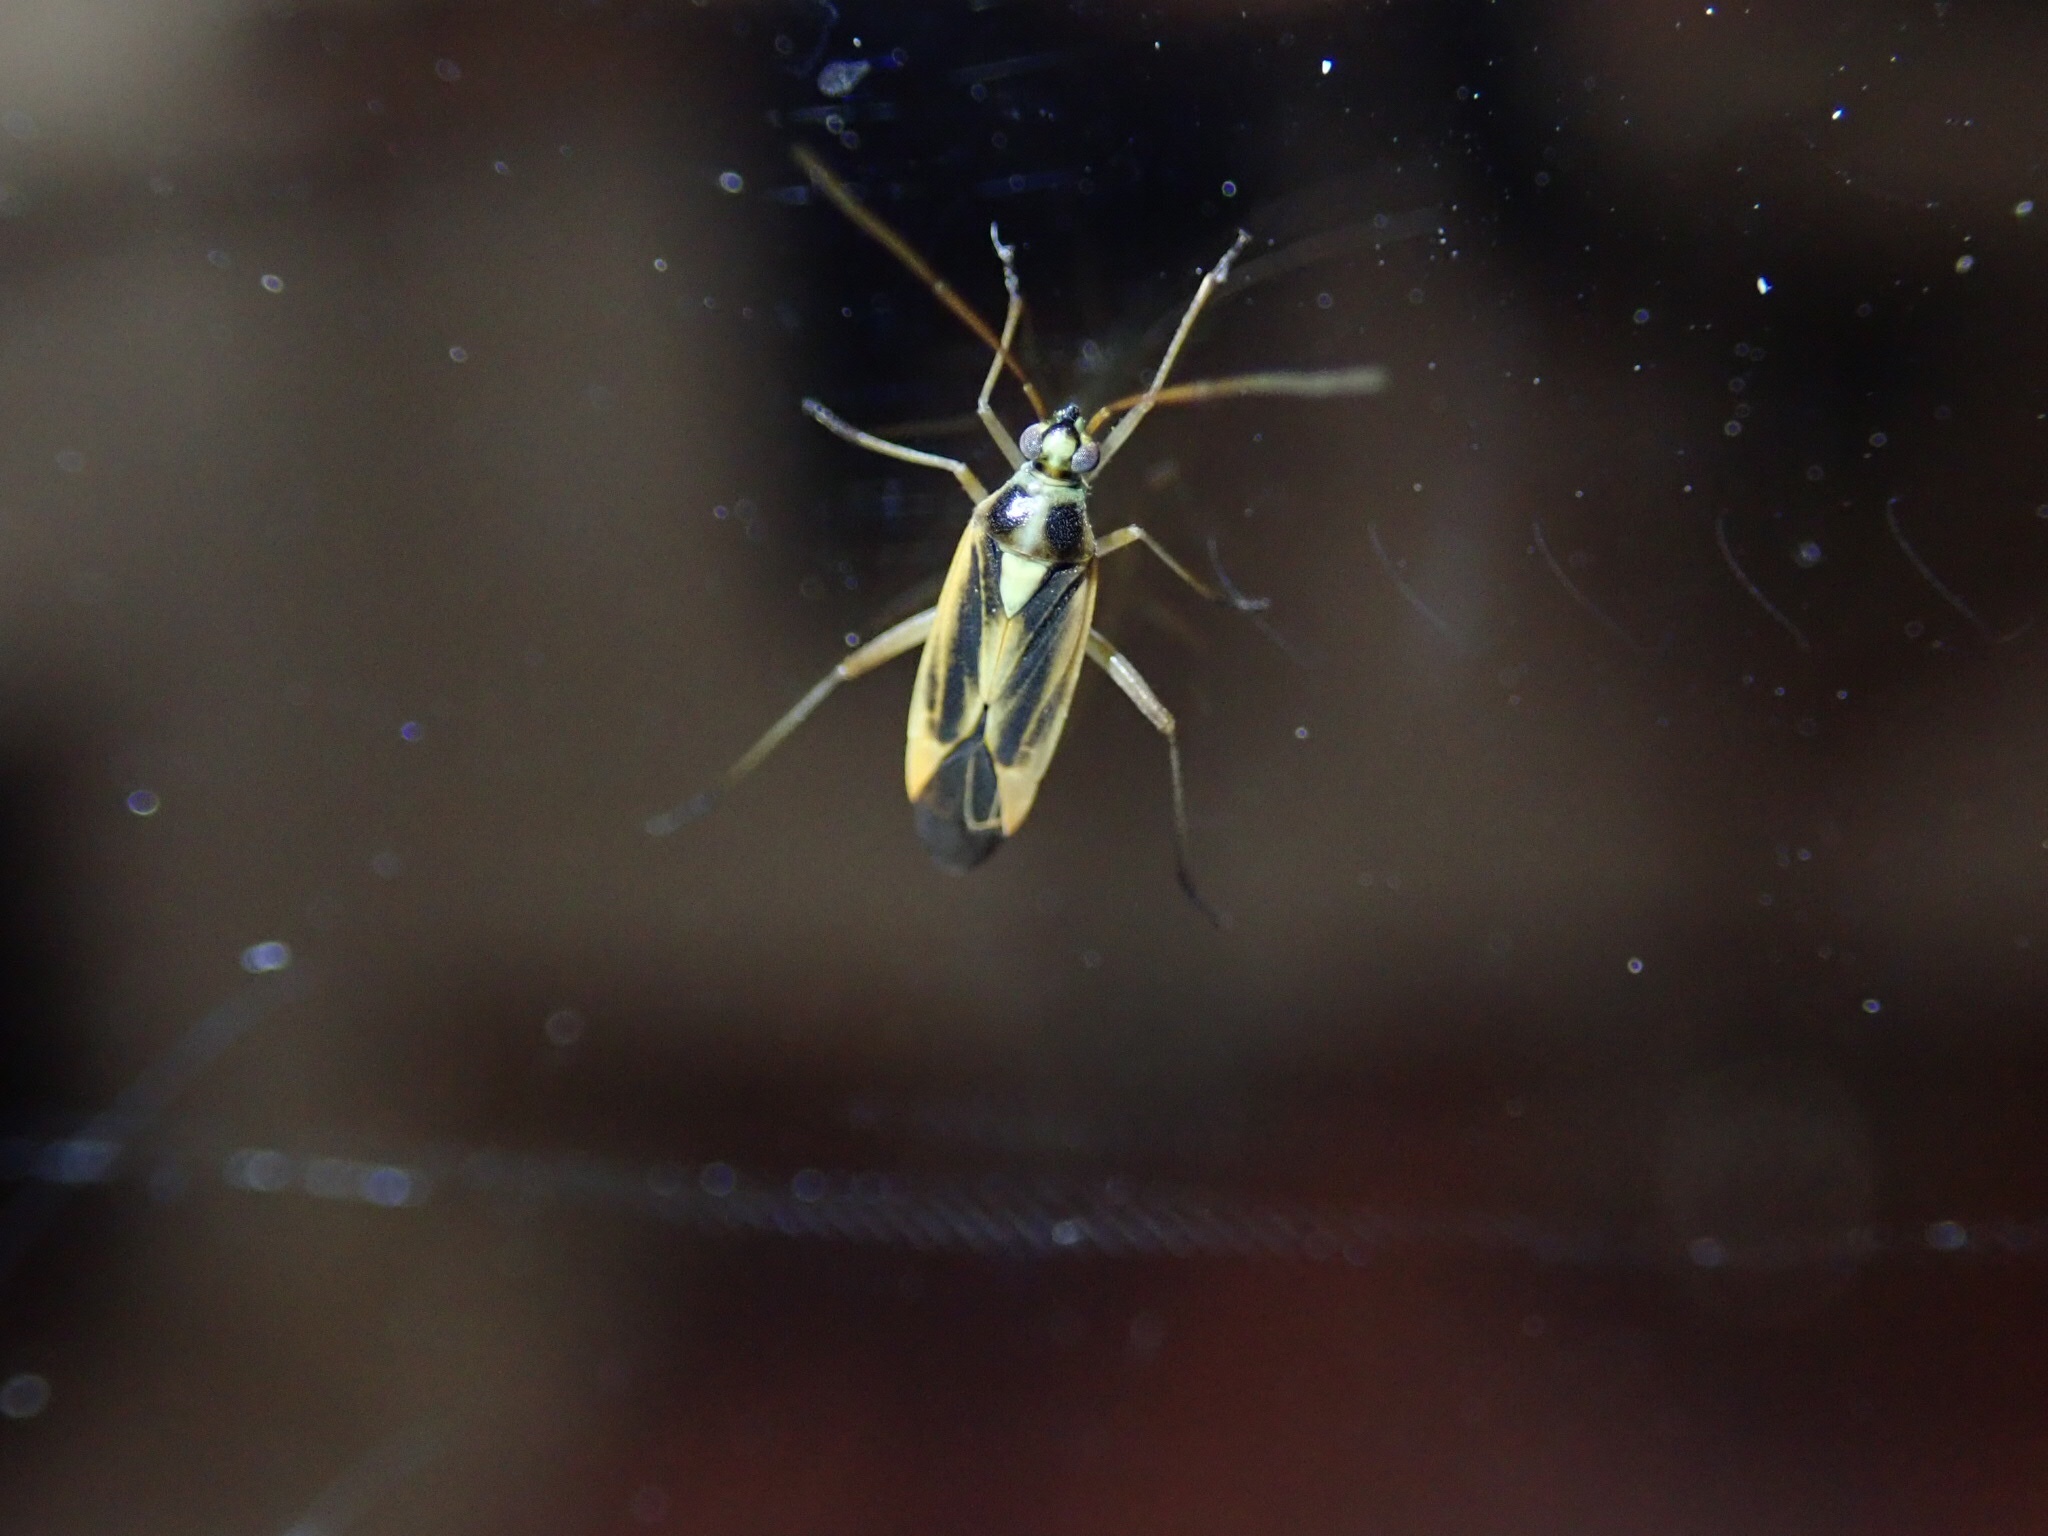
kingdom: Animalia
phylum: Arthropoda
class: Insecta
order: Hemiptera
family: Miridae
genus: Stenotus
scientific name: Stenotus binotatus
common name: Plant bug
